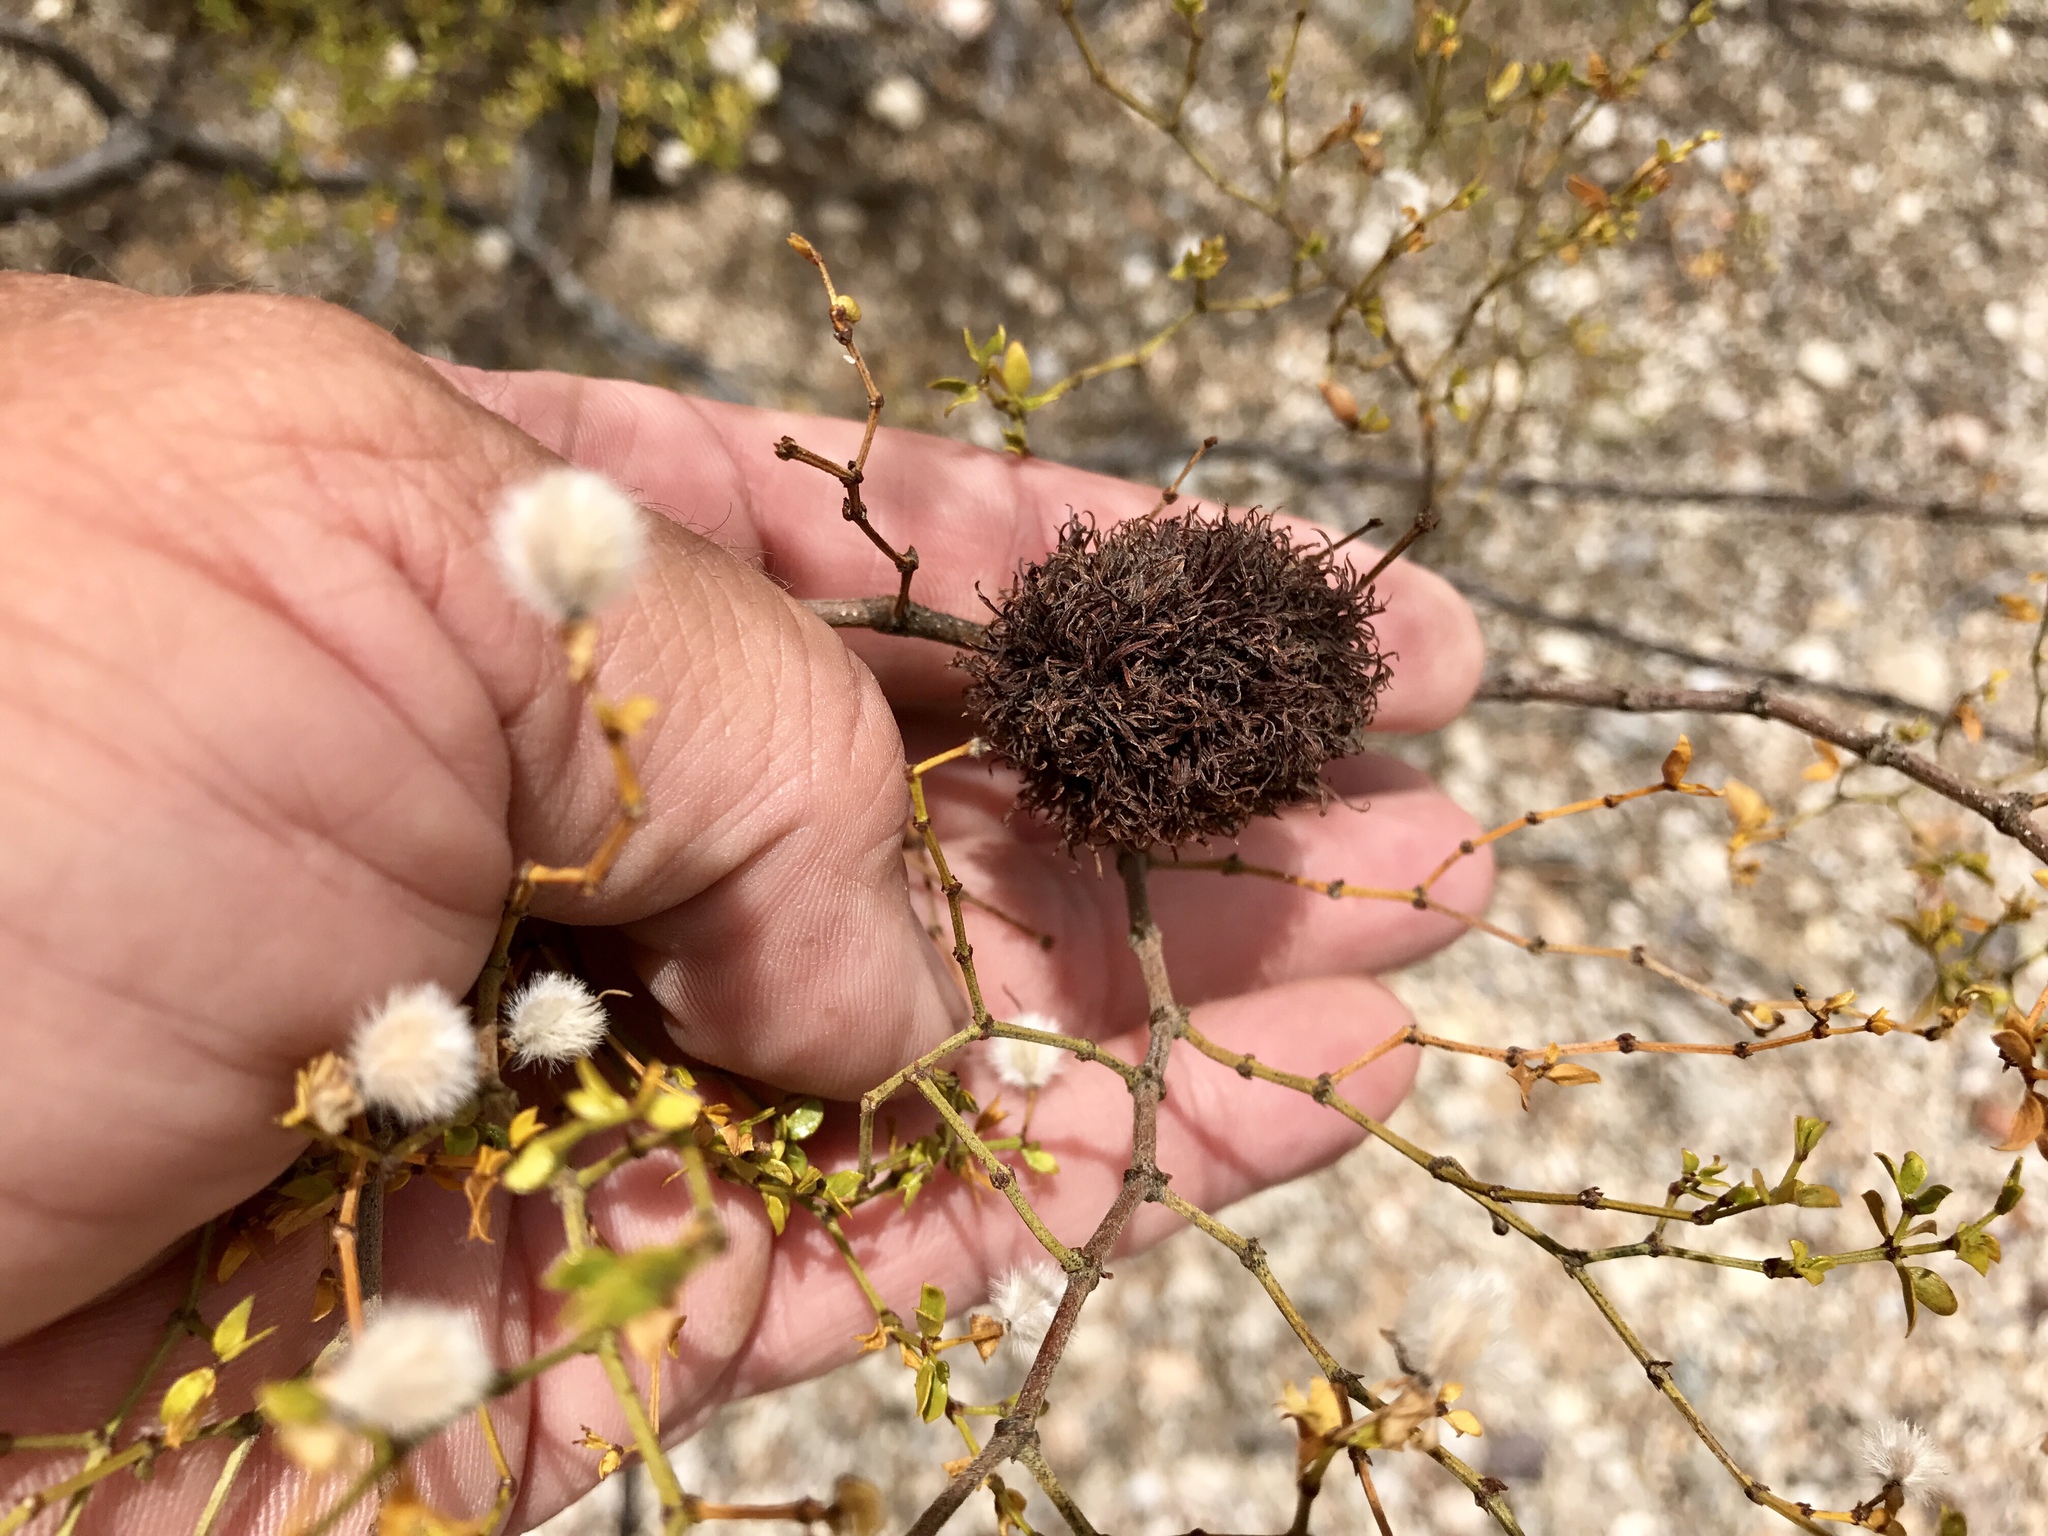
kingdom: Animalia
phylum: Arthropoda
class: Insecta
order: Diptera
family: Cecidomyiidae
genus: Asphondylia
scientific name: Asphondylia auripila
